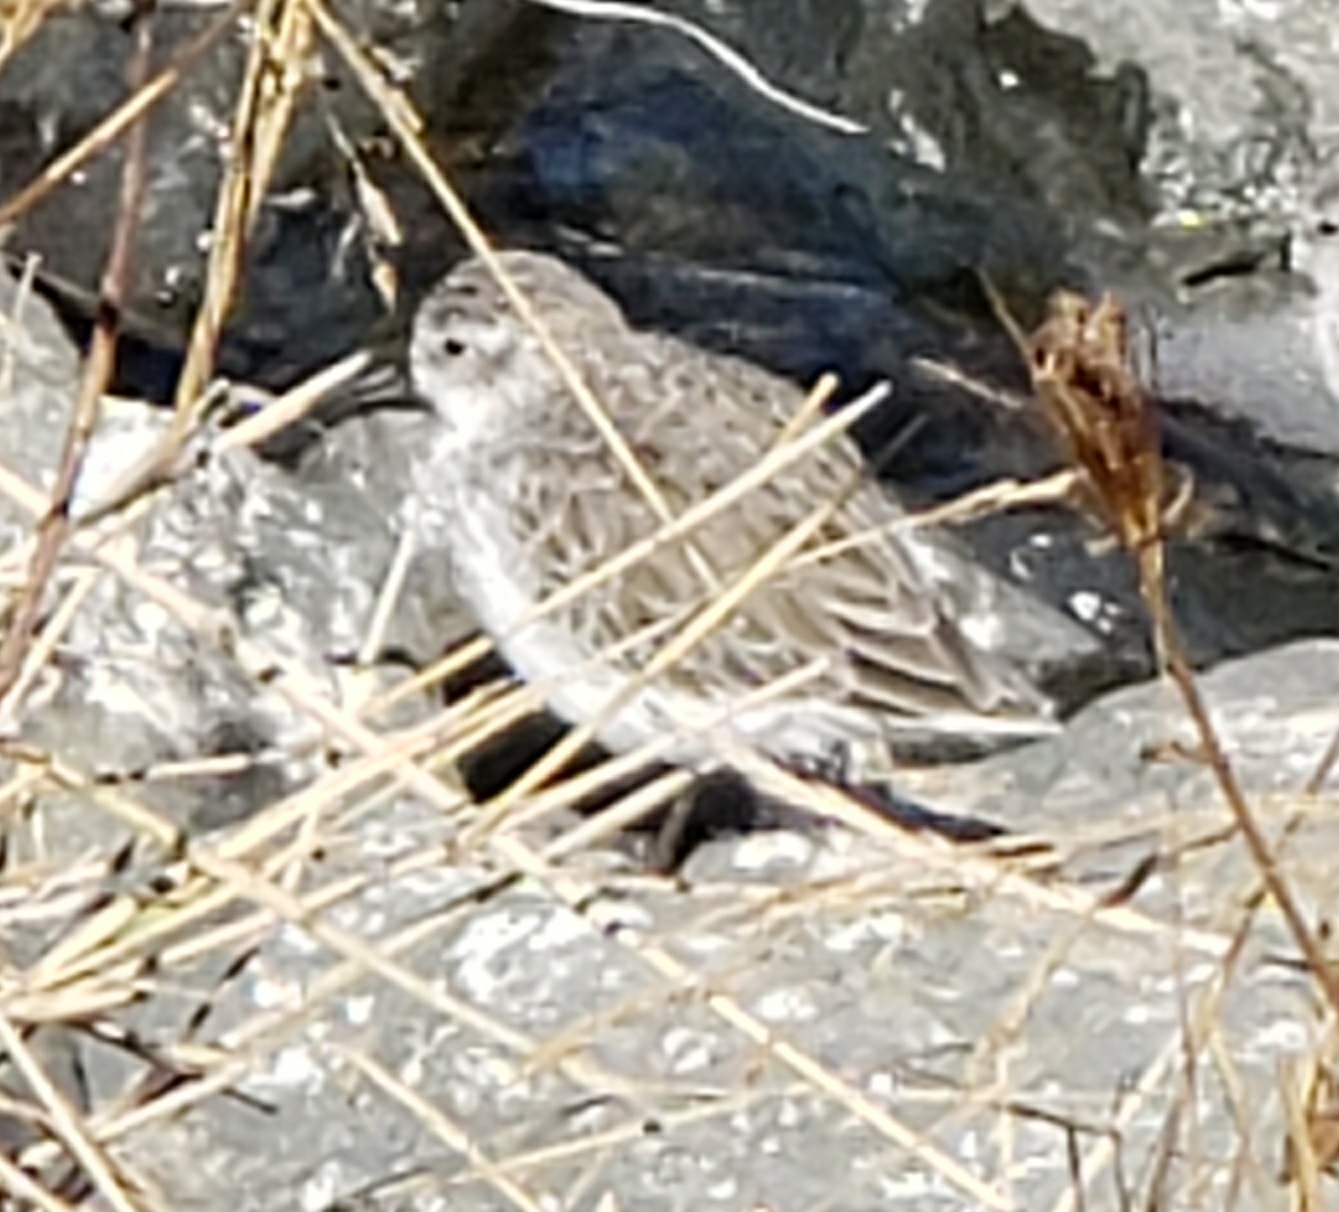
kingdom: Animalia
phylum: Chordata
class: Aves
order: Charadriiformes
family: Scolopacidae
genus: Calidris
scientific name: Calidris mauri
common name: Western sandpiper
